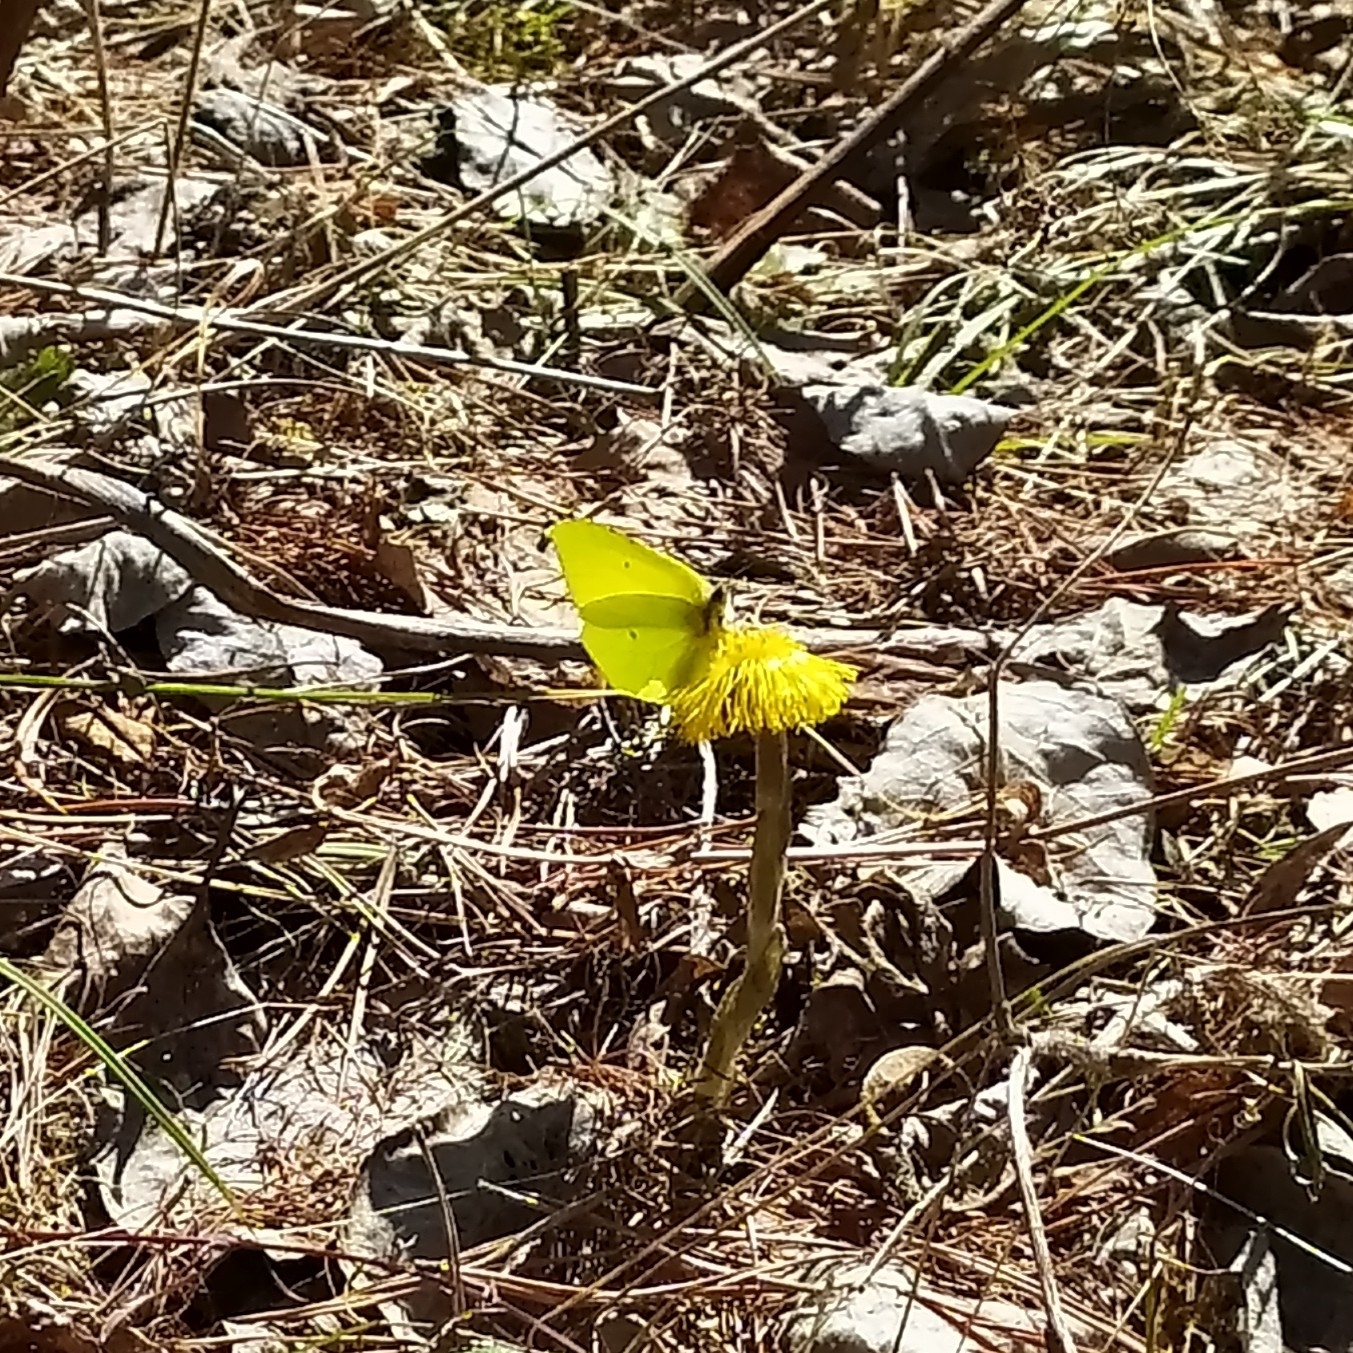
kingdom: Animalia
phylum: Arthropoda
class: Insecta
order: Lepidoptera
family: Pieridae
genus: Gonepteryx
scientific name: Gonepteryx rhamni
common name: Brimstone
